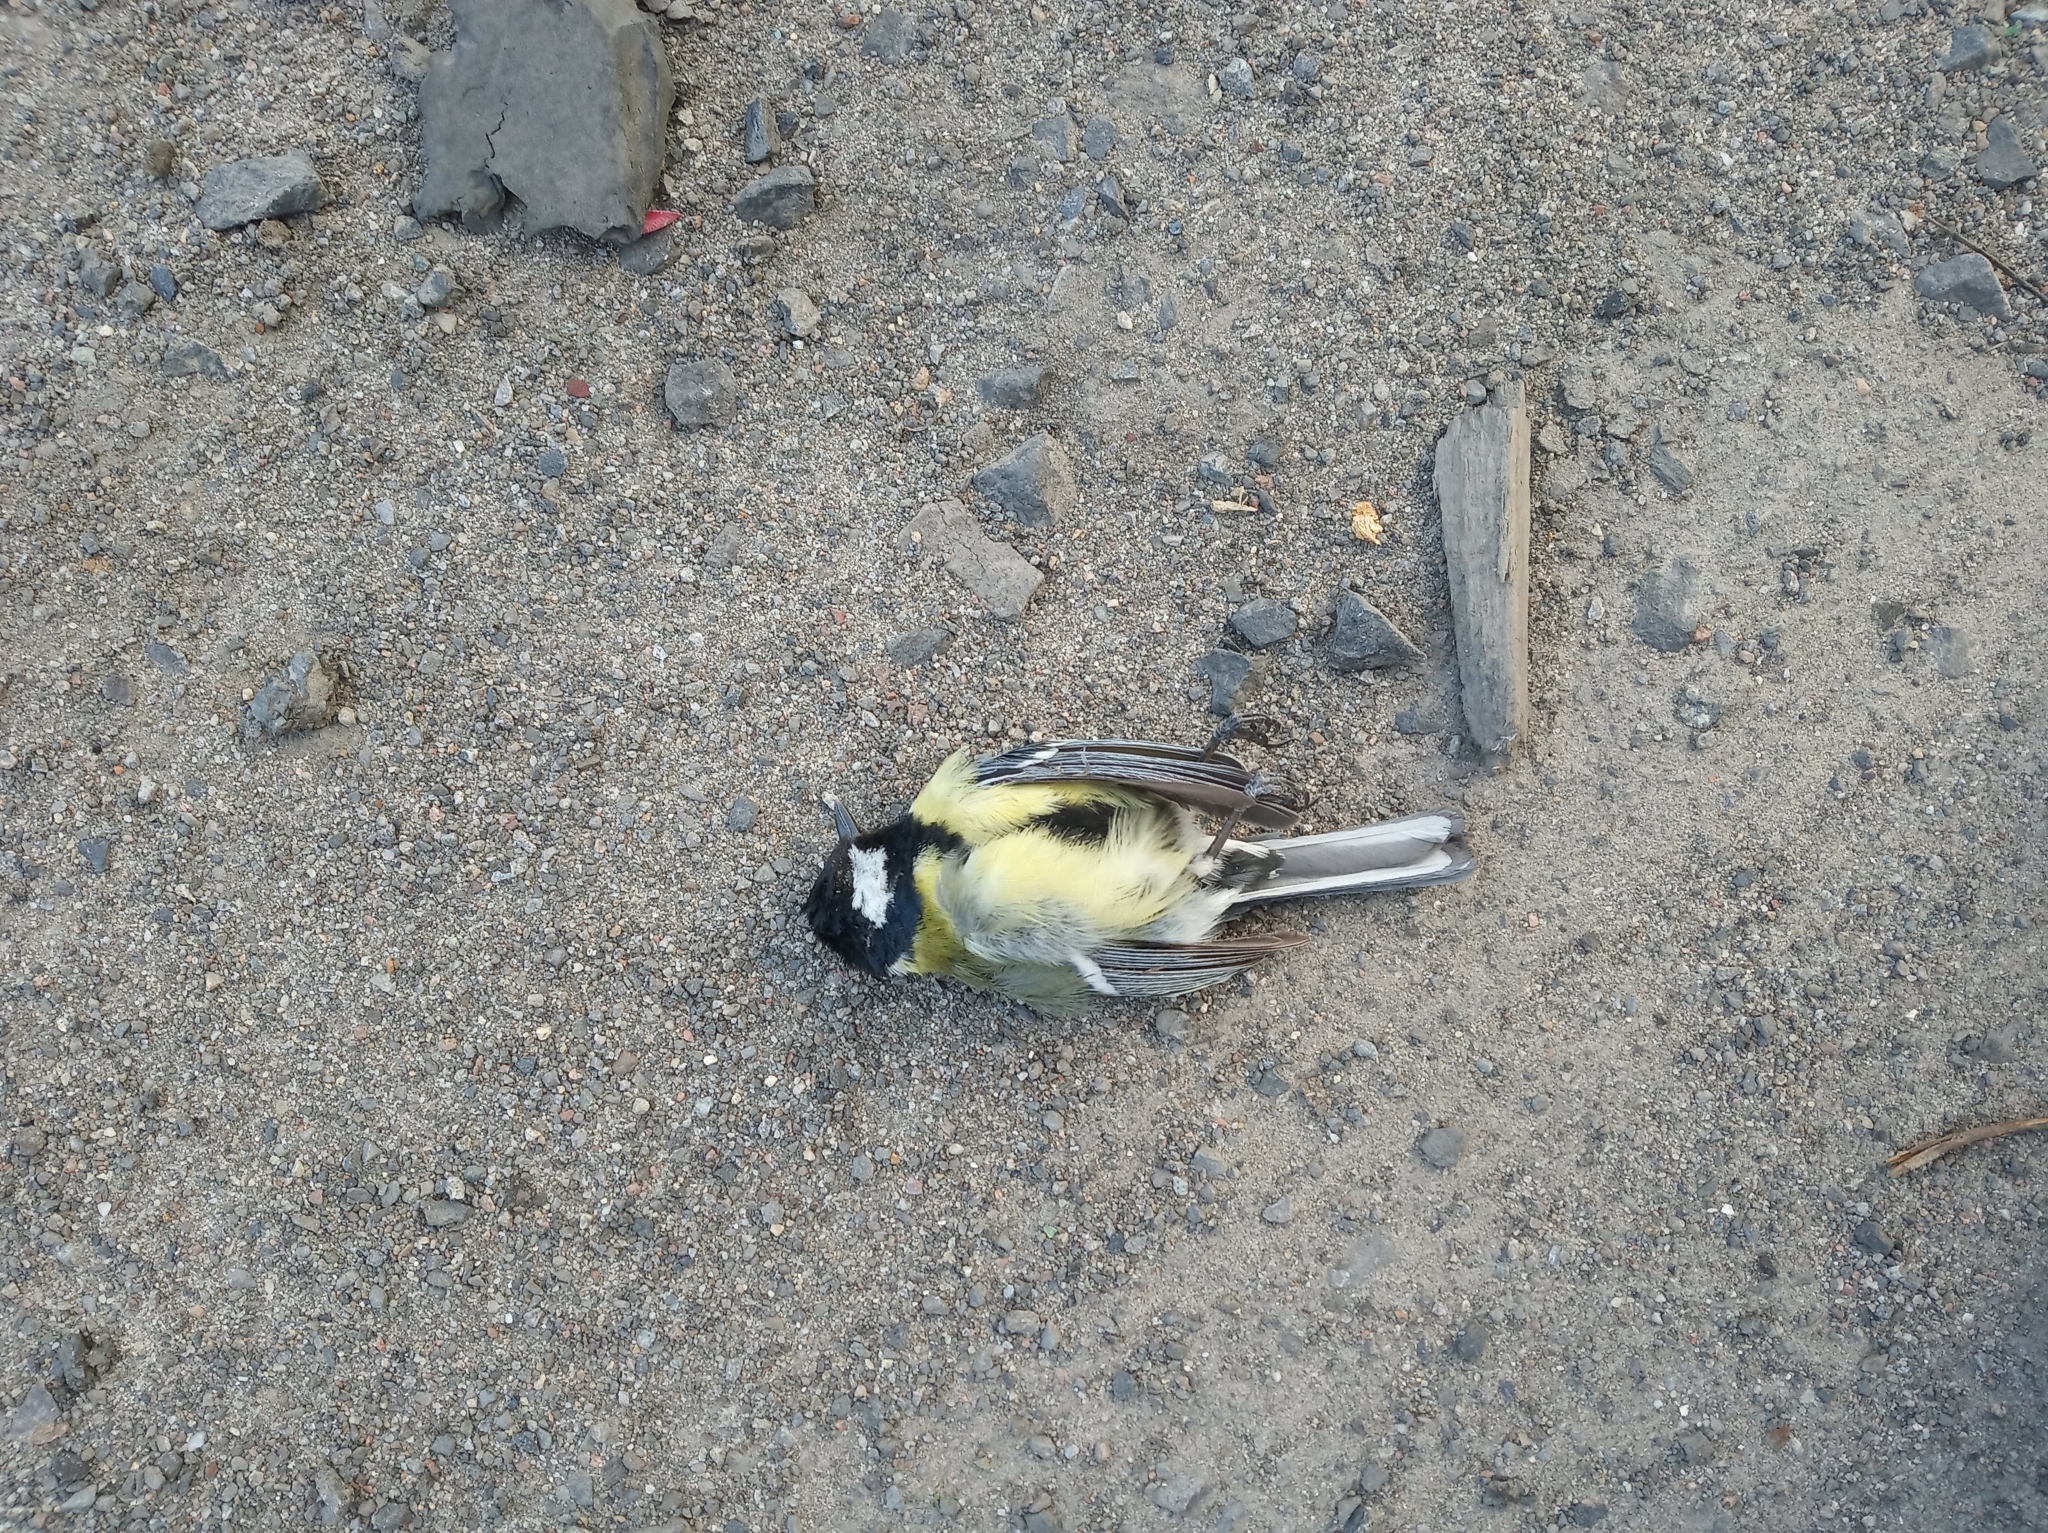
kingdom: Animalia
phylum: Chordata
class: Aves
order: Passeriformes
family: Paridae
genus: Parus
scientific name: Parus major
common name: Great tit
